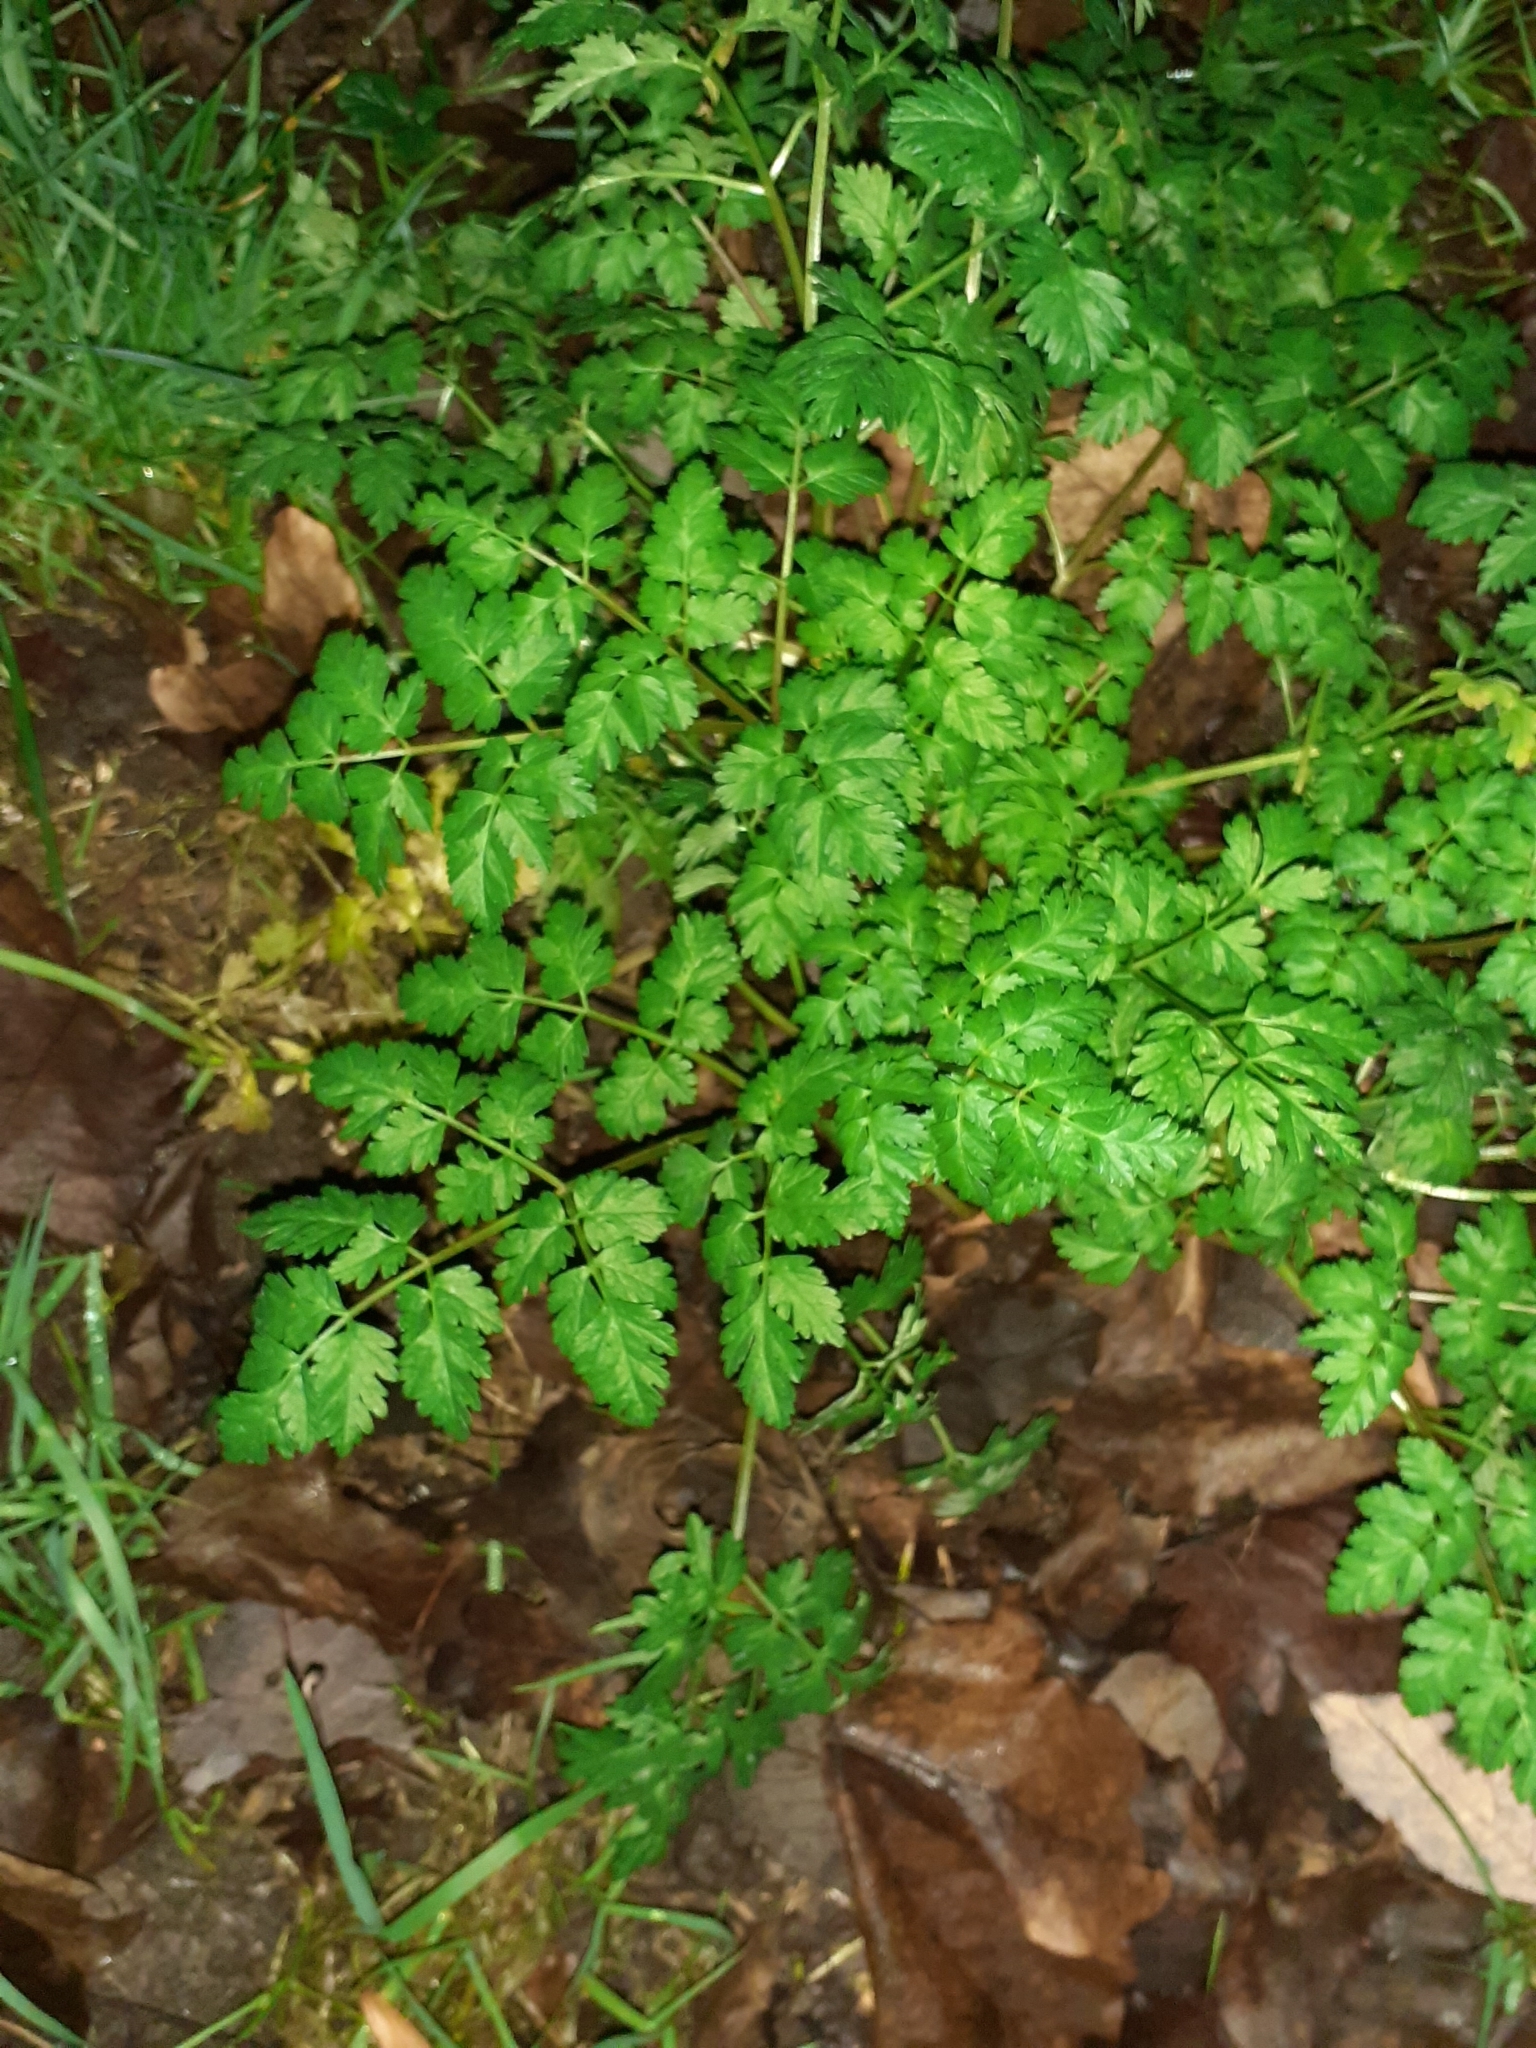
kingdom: Plantae
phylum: Tracheophyta
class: Magnoliopsida
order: Apiales
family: Apiaceae
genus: Anthriscus
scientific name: Anthriscus sylvestris
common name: Cow parsley
